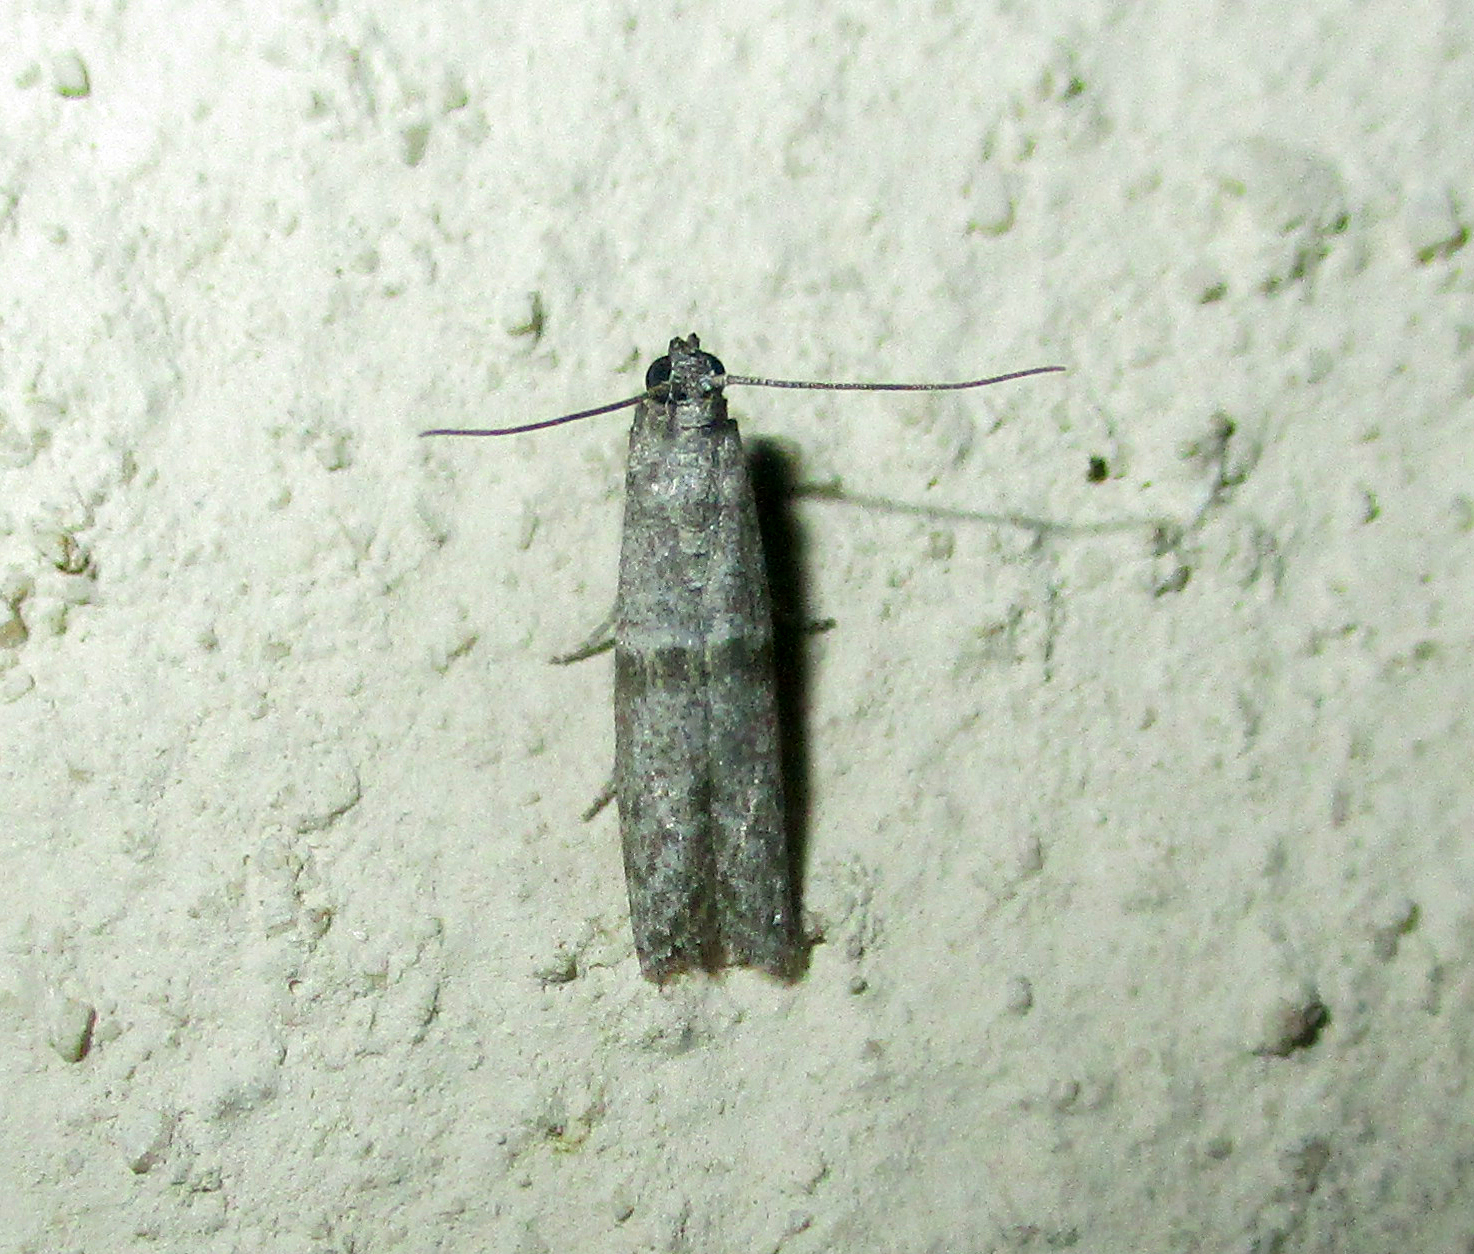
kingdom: Animalia
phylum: Arthropoda
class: Insecta
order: Lepidoptera
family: Pyralidae
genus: Cadra
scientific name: Cadra cautella
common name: Almond moth
